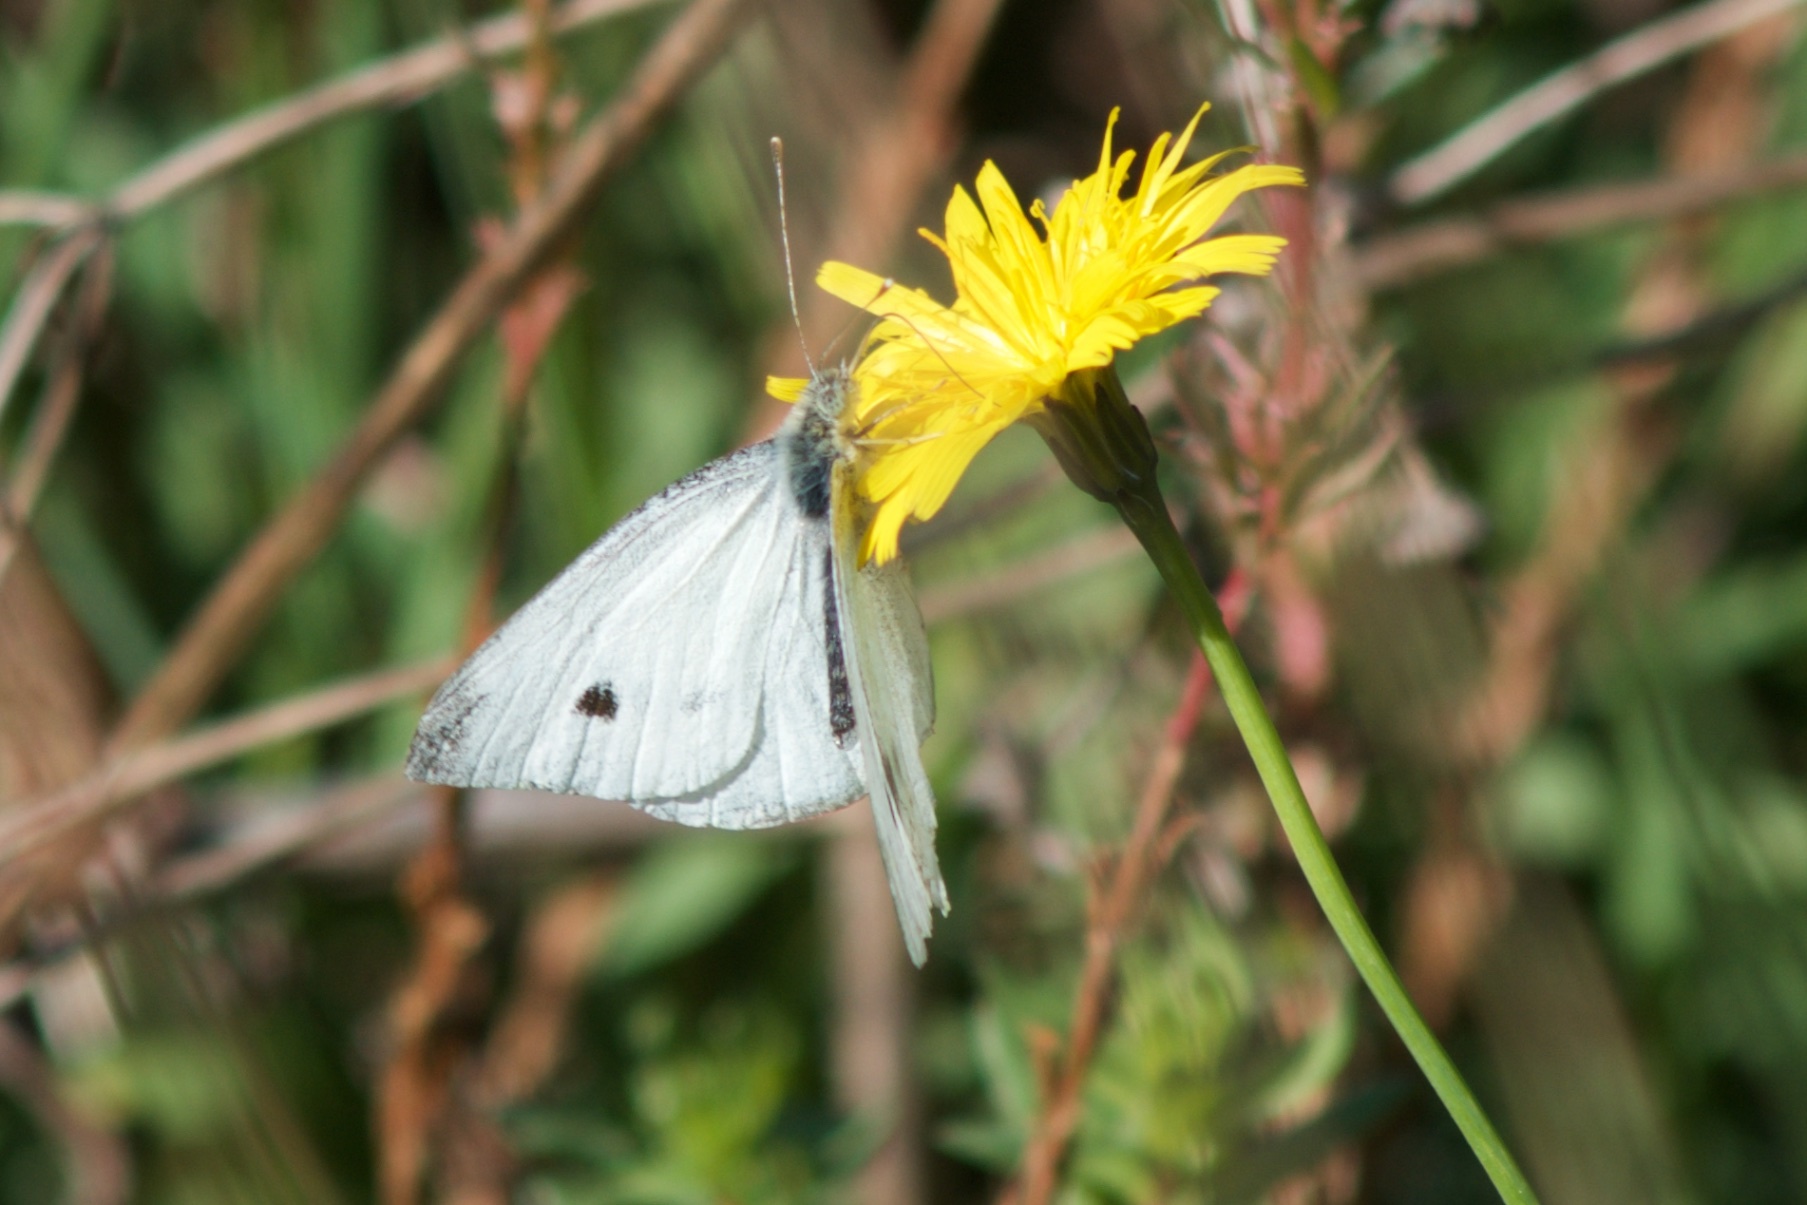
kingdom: Animalia
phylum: Arthropoda
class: Insecta
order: Lepidoptera
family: Pieridae
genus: Pieris
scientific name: Pieris rapae
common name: Small white
